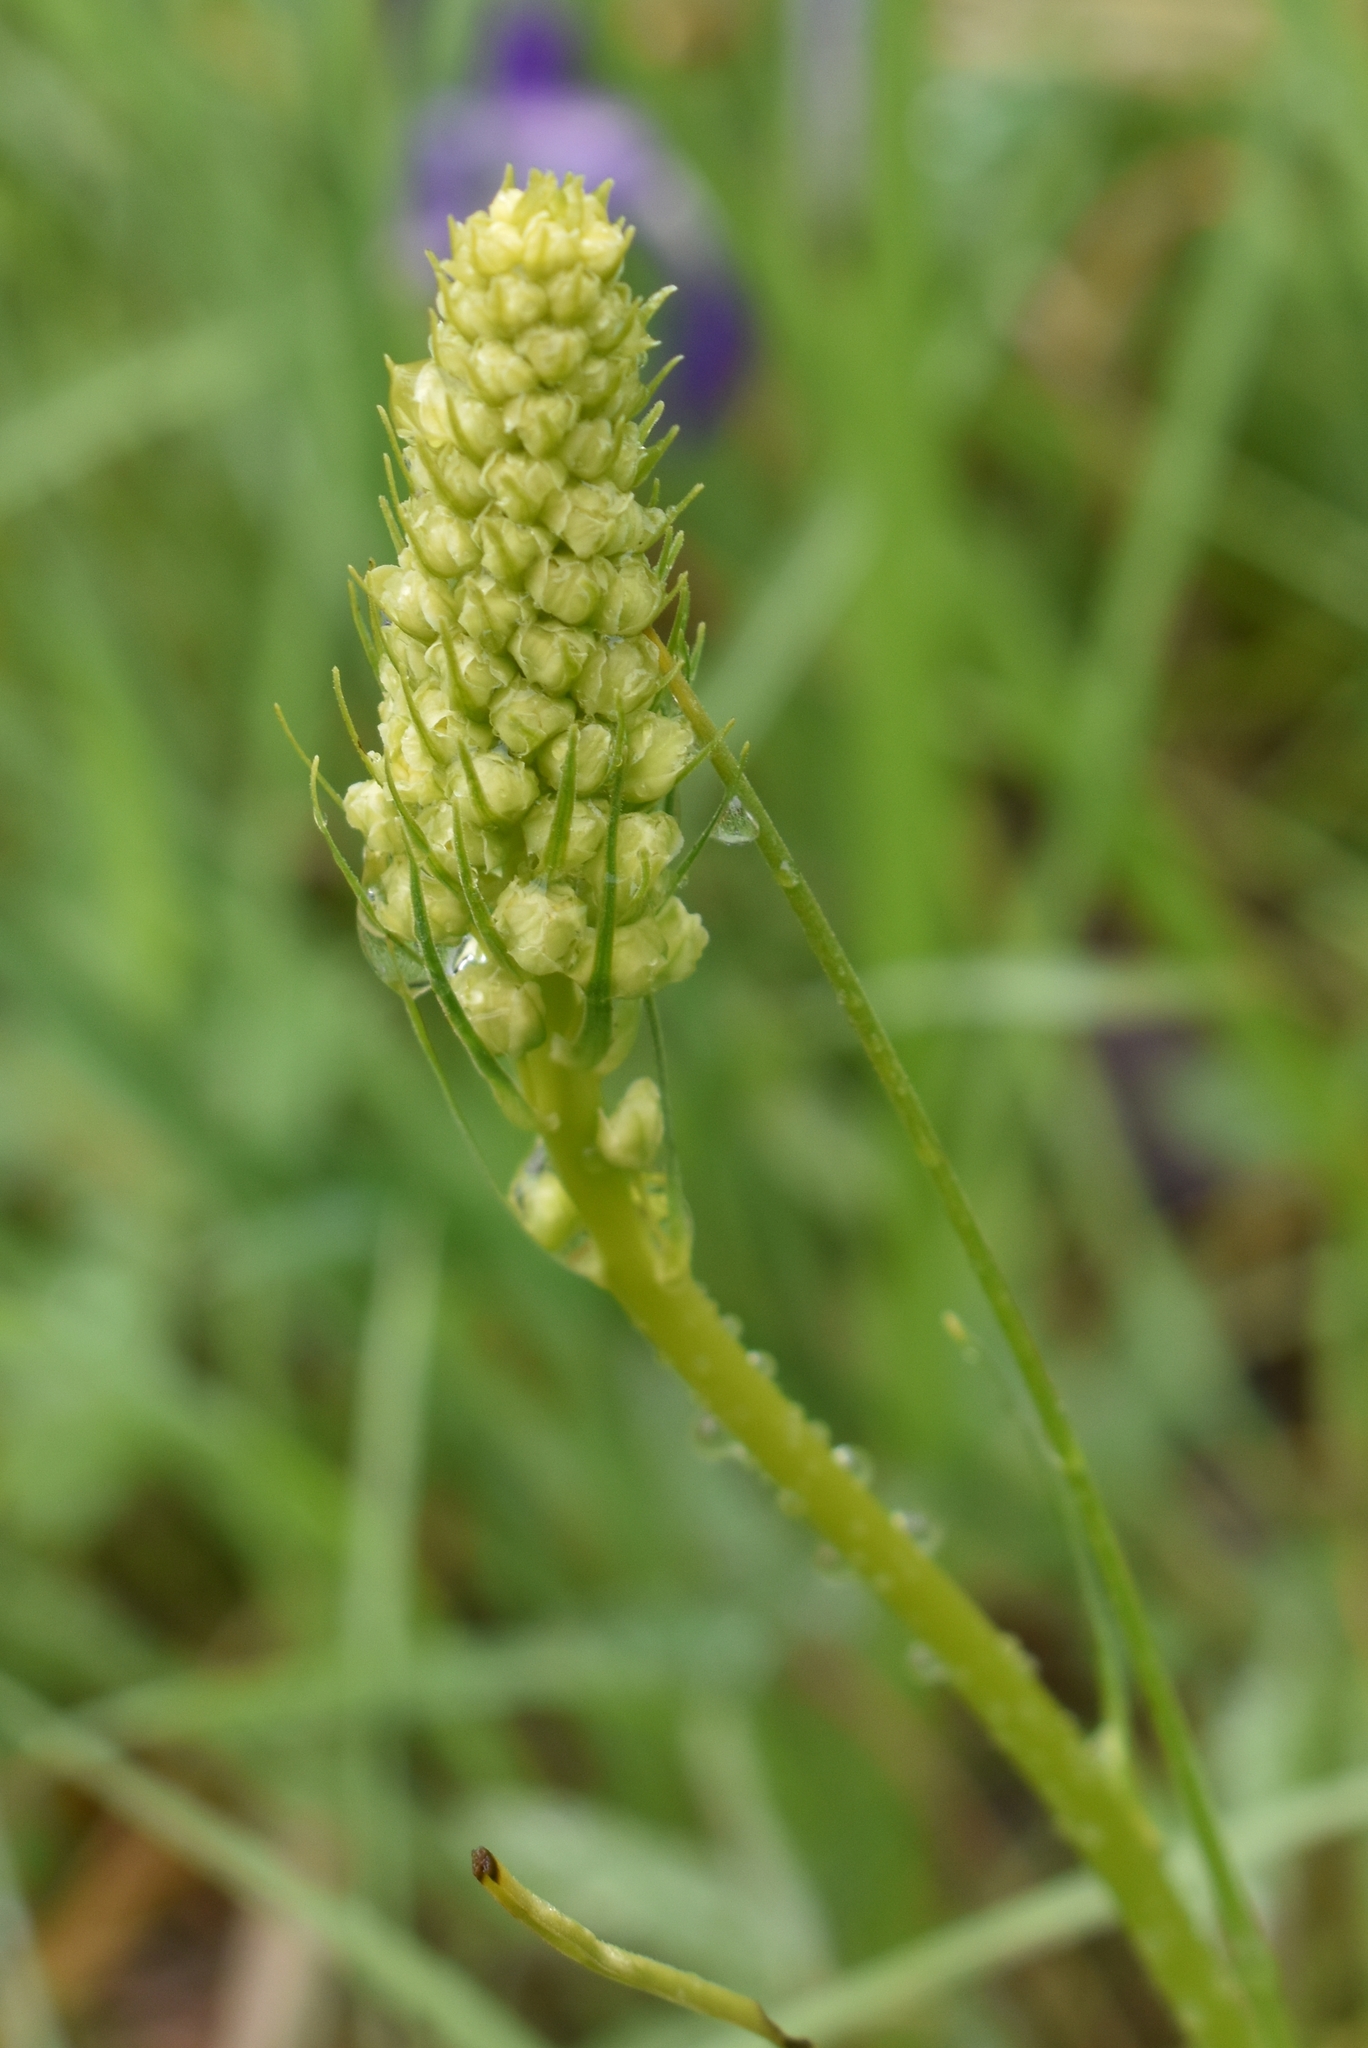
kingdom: Plantae
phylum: Tracheophyta
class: Liliopsida
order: Liliales
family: Melanthiaceae
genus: Toxicoscordion
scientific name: Toxicoscordion venenosum
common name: Meadow death camas
